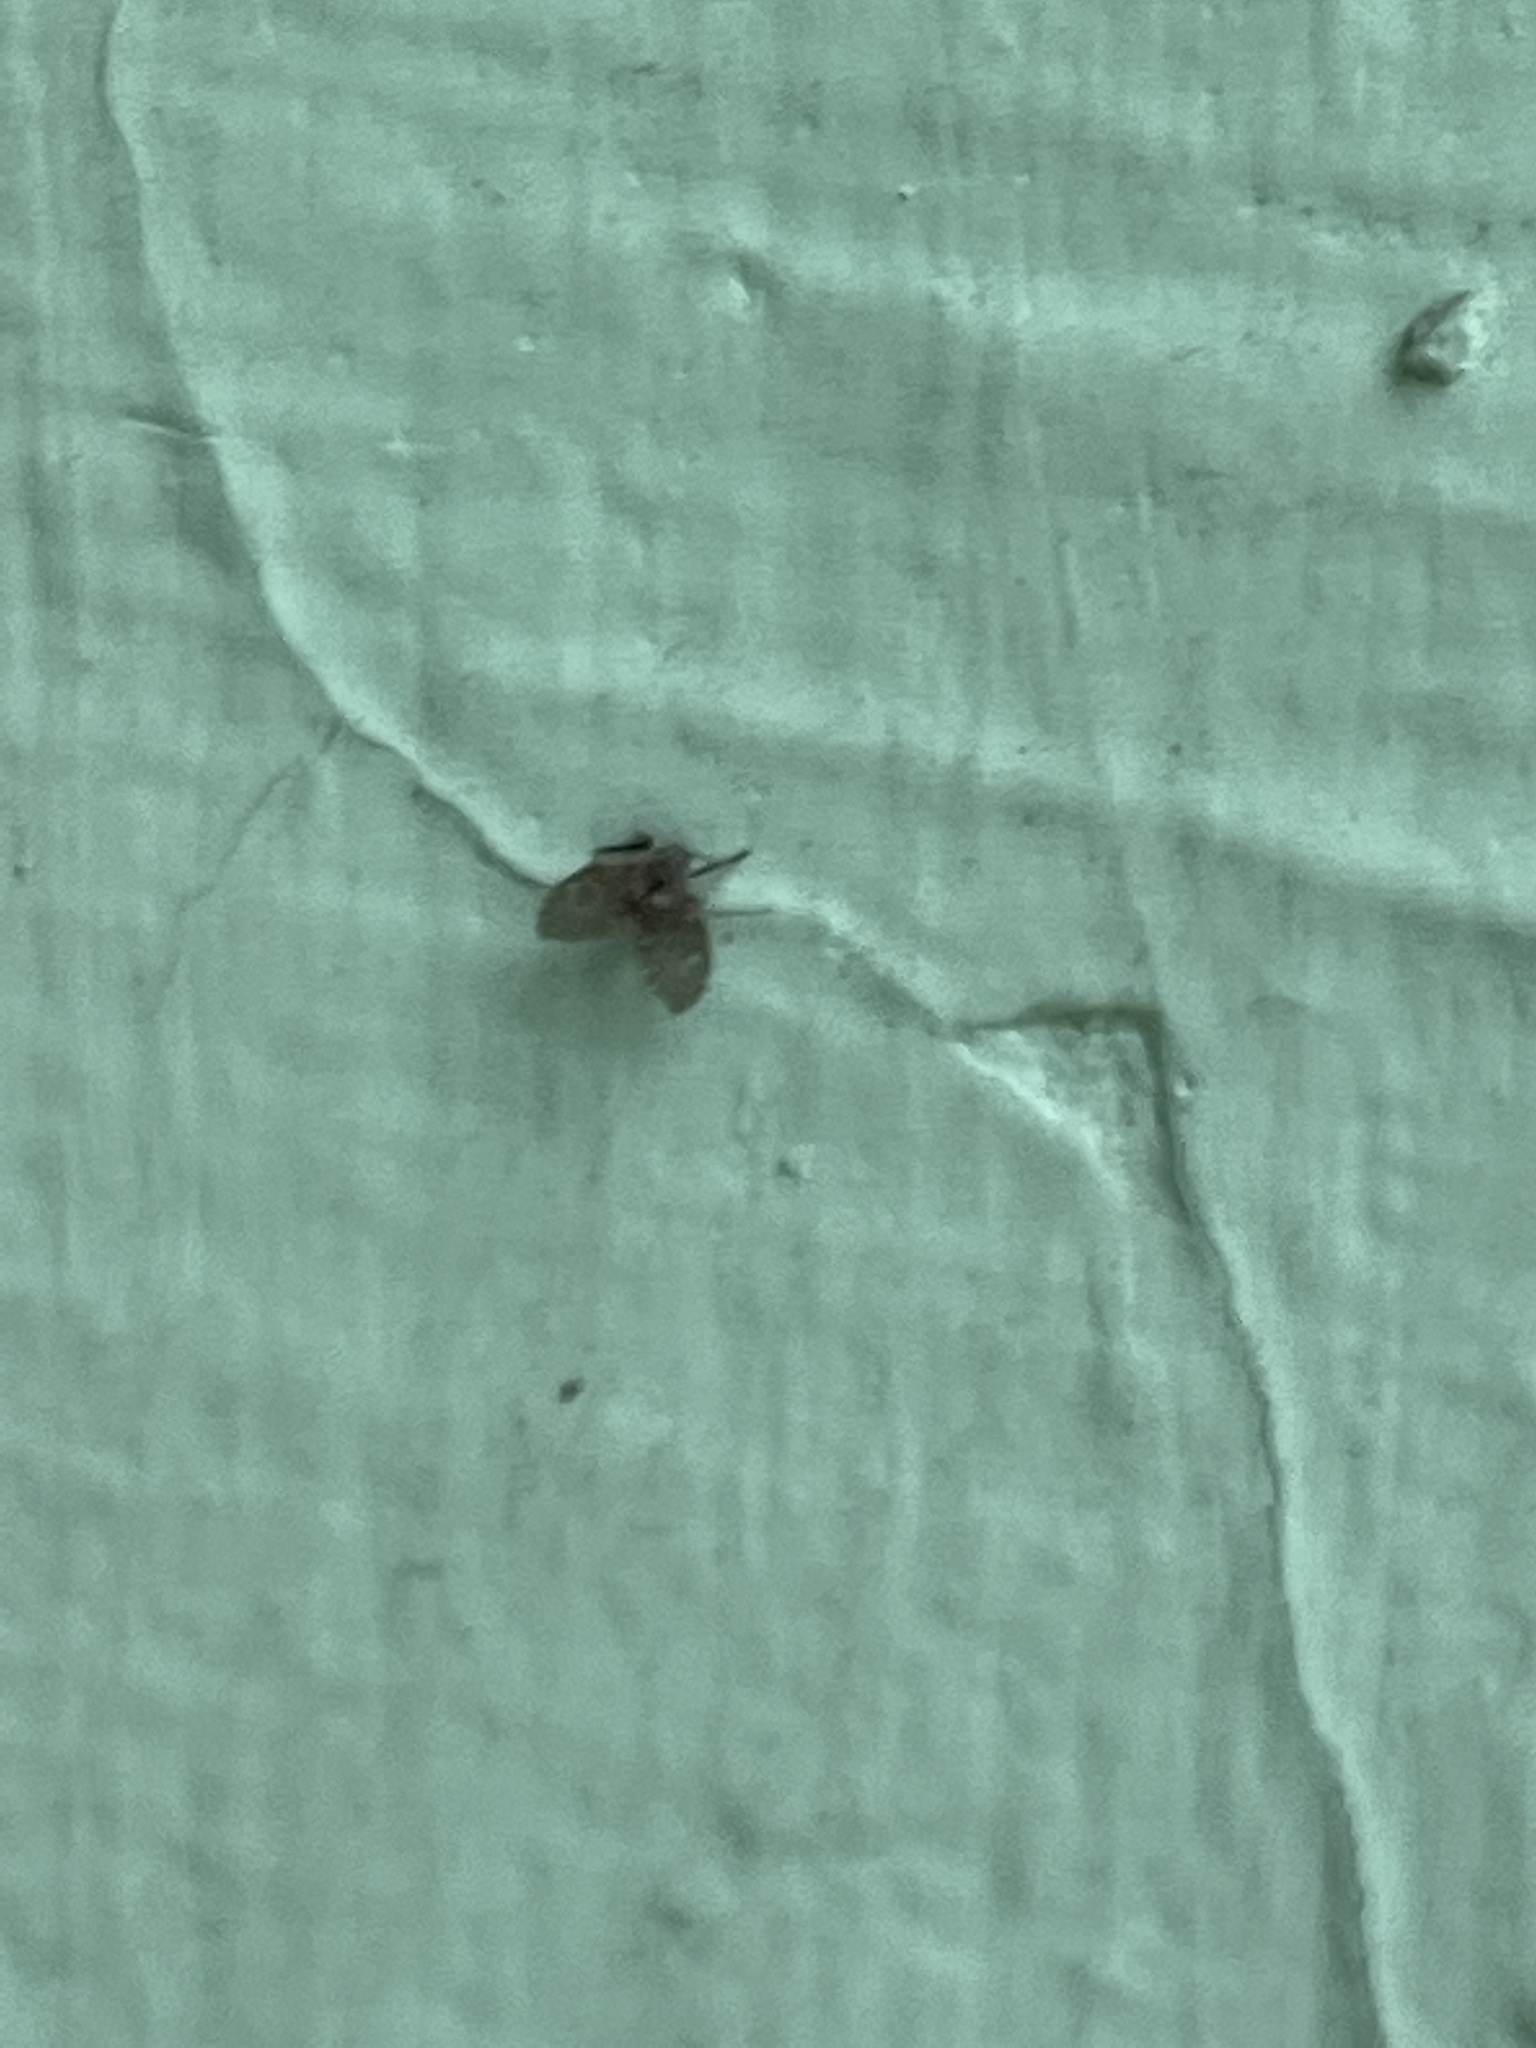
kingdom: Animalia
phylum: Arthropoda
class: Insecta
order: Diptera
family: Psychodidae
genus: Clogmia
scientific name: Clogmia albipunctatus
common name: White-spotted moth fly
